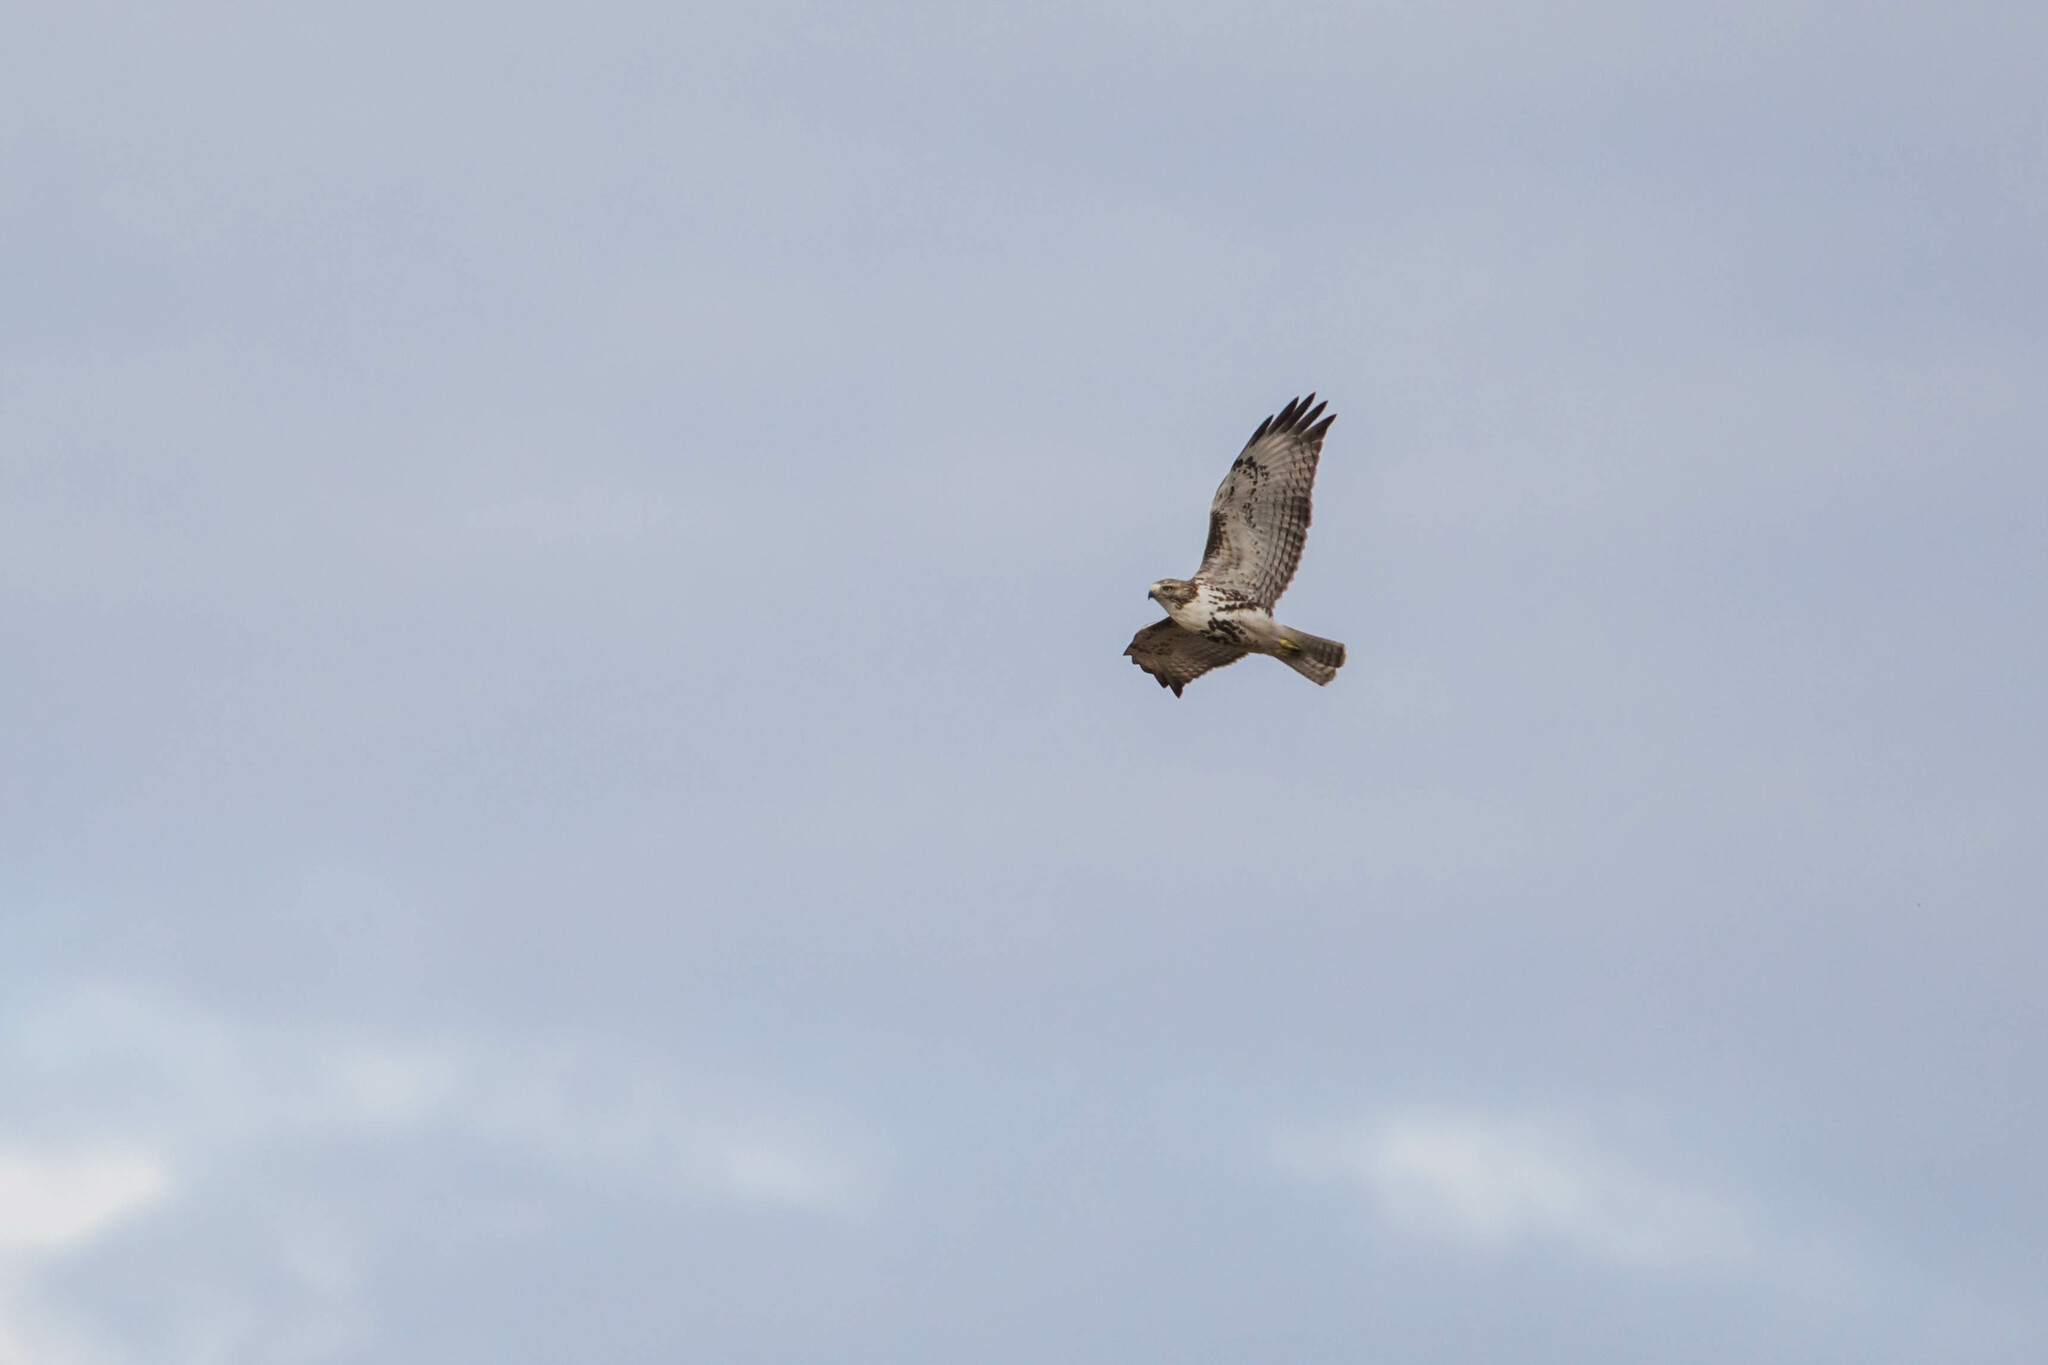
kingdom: Animalia
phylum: Chordata
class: Aves
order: Accipitriformes
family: Accipitridae
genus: Buteo
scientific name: Buteo jamaicensis
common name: Red-tailed hawk
